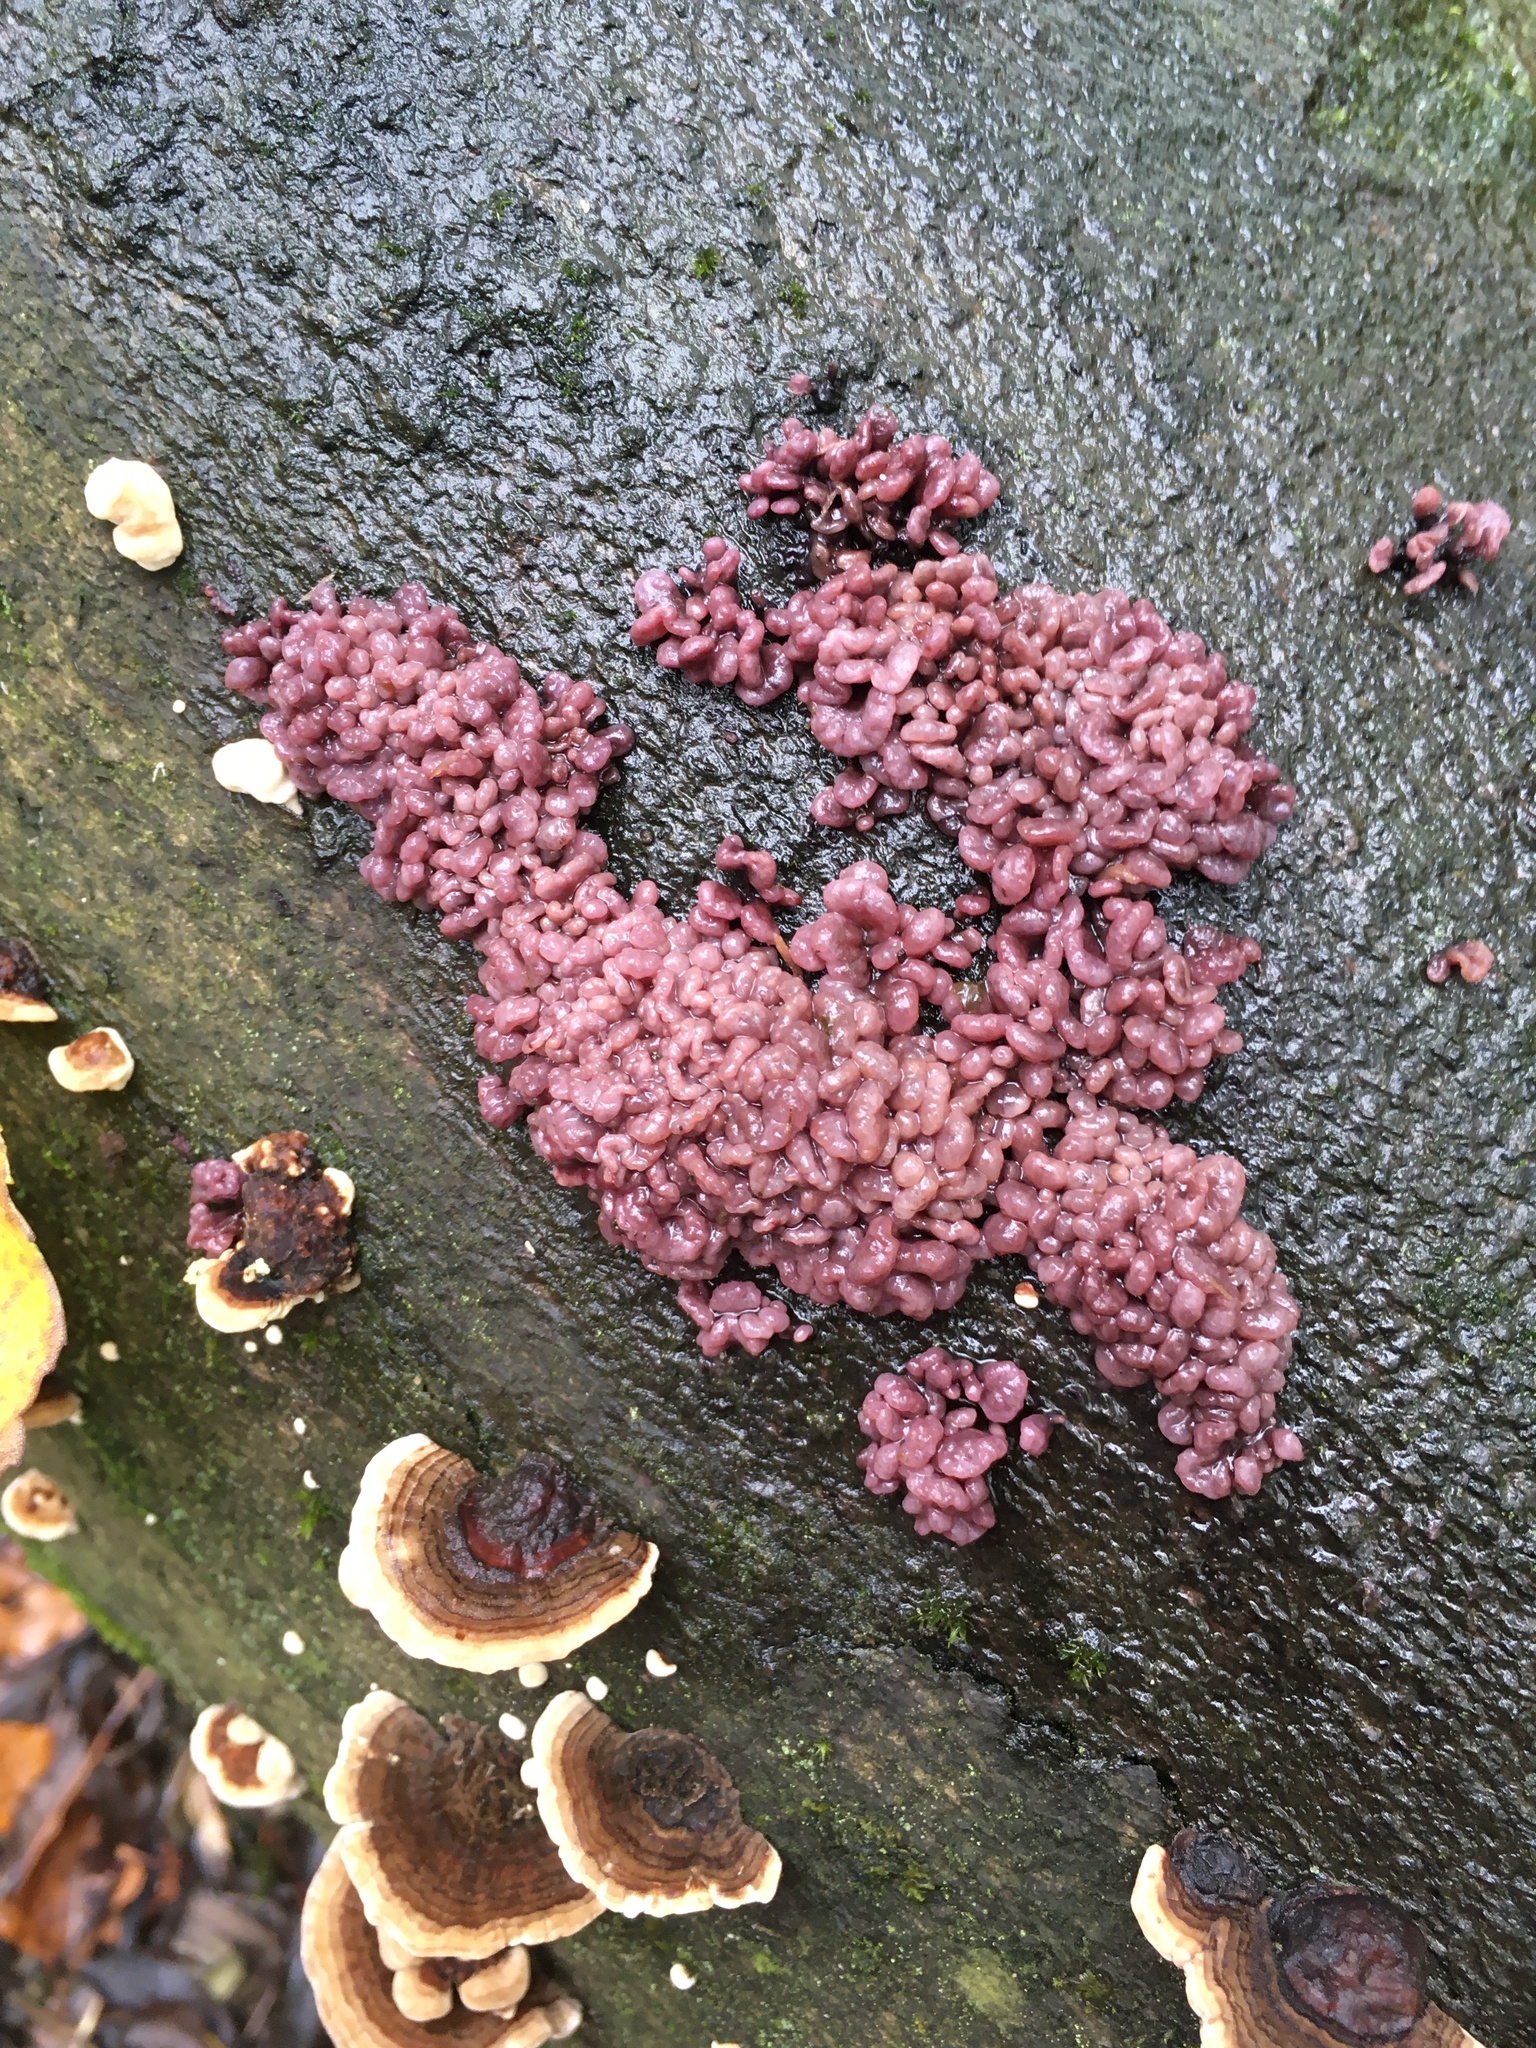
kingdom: Fungi
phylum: Ascomycota
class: Leotiomycetes
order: Helotiales
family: Gelatinodiscaceae
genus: Ascocoryne
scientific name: Ascocoryne sarcoides
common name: Purple jellydisc
